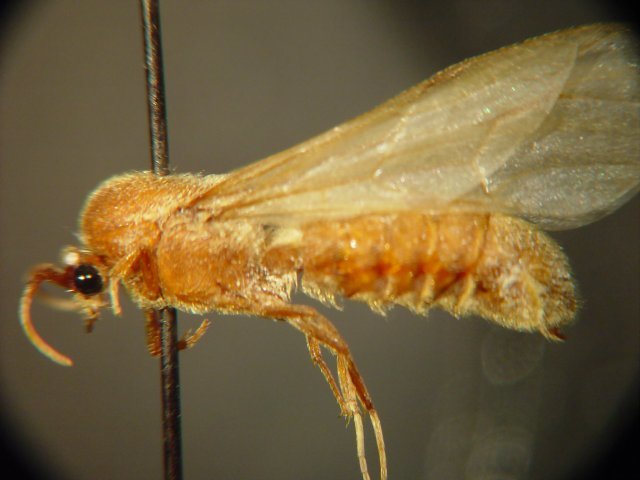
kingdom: Animalia
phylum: Arthropoda
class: Insecta
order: Hymenoptera
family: Formicidae
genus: Neivamyrmex
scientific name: Neivamyrmex swainsonii
